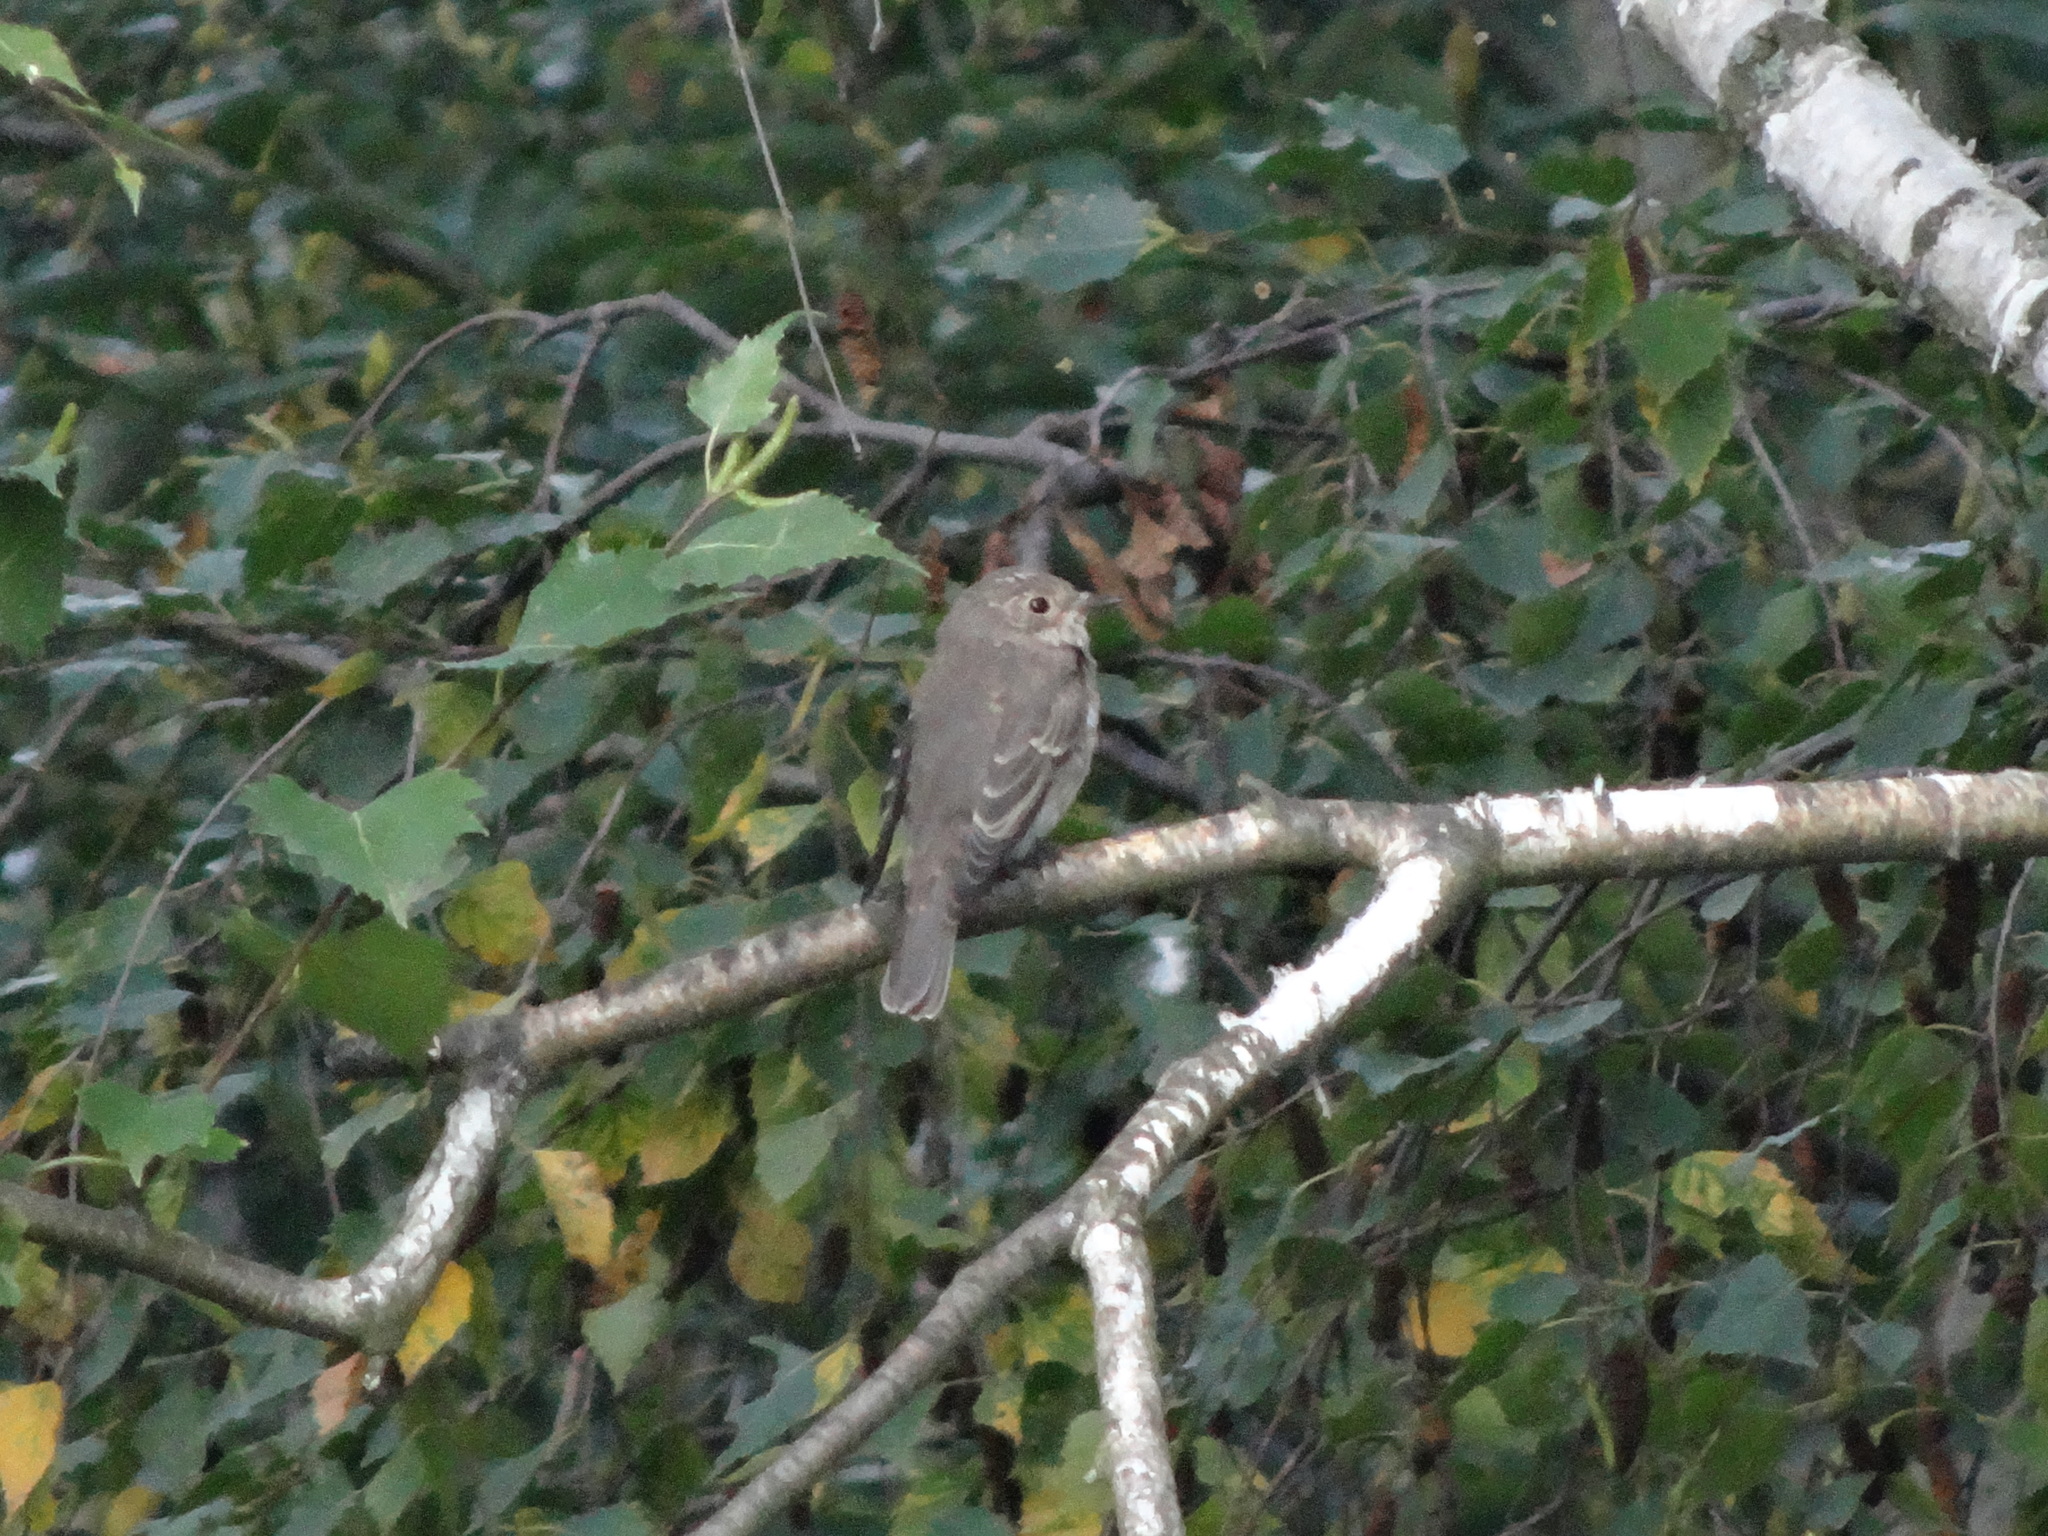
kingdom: Animalia
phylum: Chordata
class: Aves
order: Passeriformes
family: Muscicapidae
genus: Muscicapa
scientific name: Muscicapa striata
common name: Spotted flycatcher
